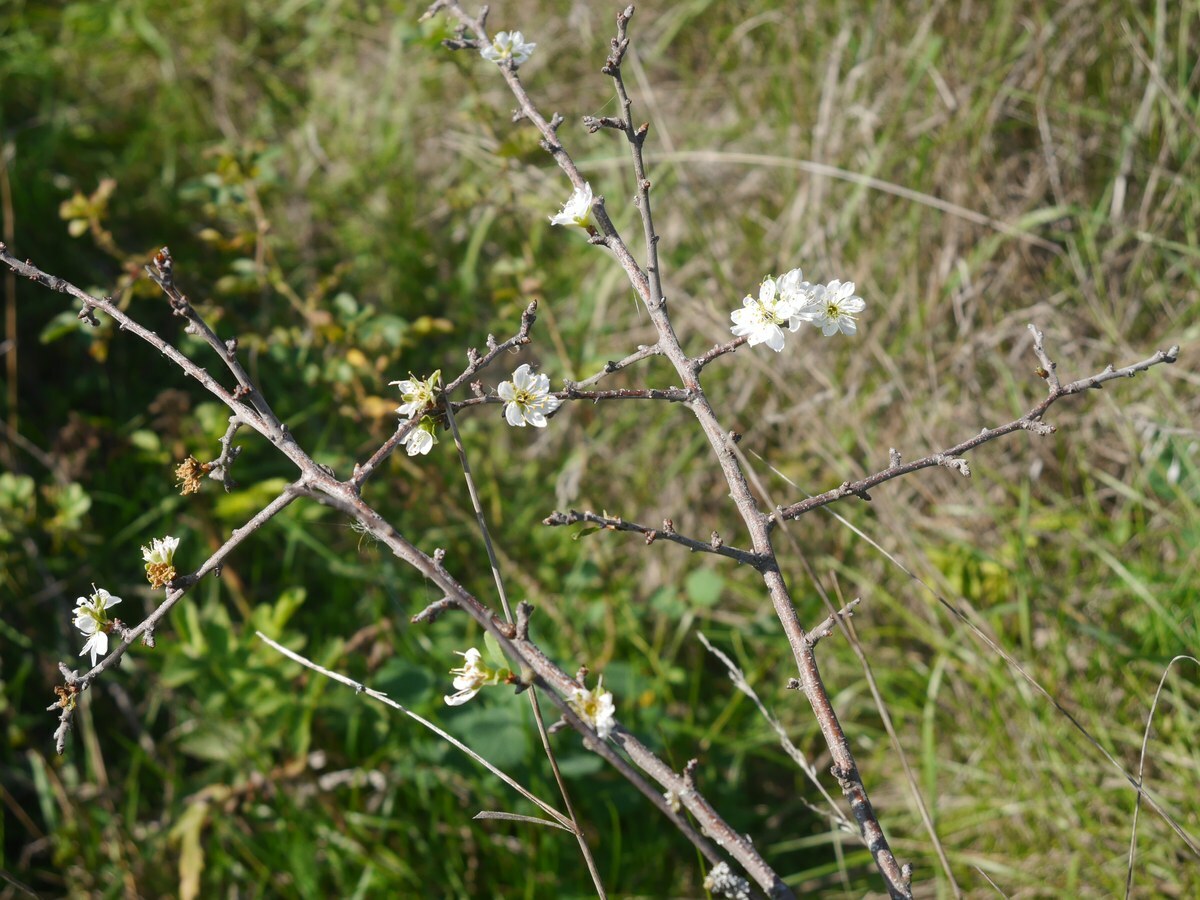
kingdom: Plantae
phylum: Tracheophyta
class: Magnoliopsida
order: Rosales
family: Rosaceae
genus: Prunus
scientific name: Prunus spinosa
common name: Blackthorn
